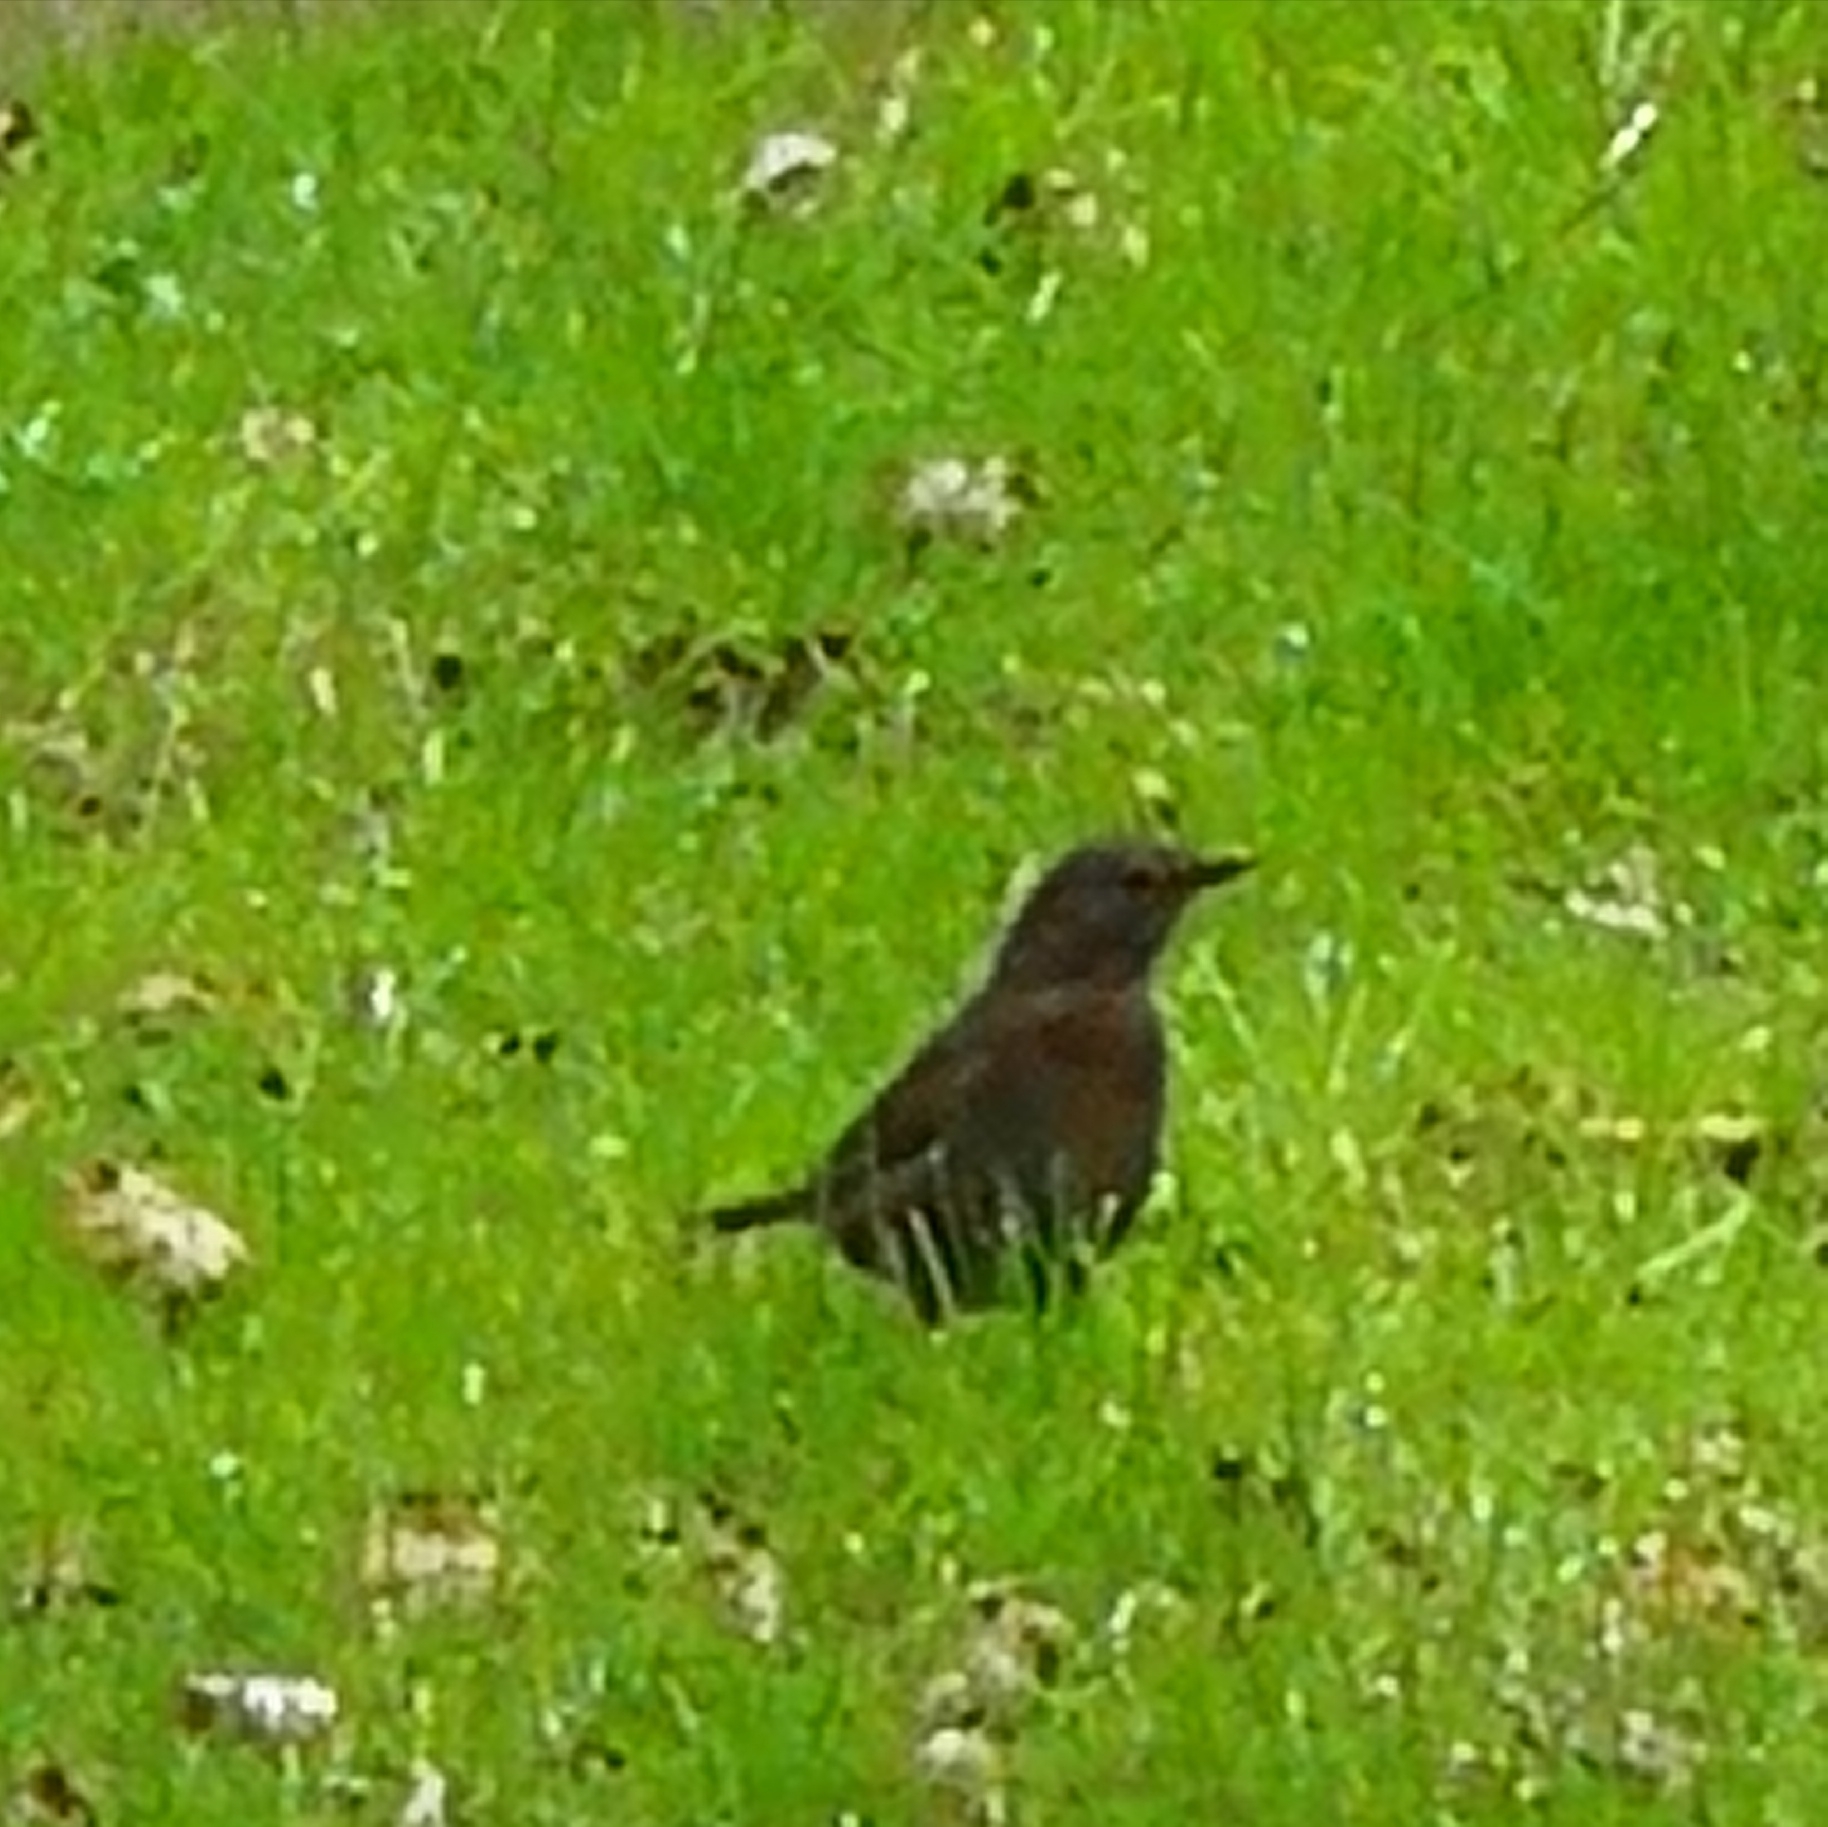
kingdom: Animalia
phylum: Chordata
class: Aves
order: Passeriformes
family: Turdidae
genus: Turdus
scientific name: Turdus merula
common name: Common blackbird
